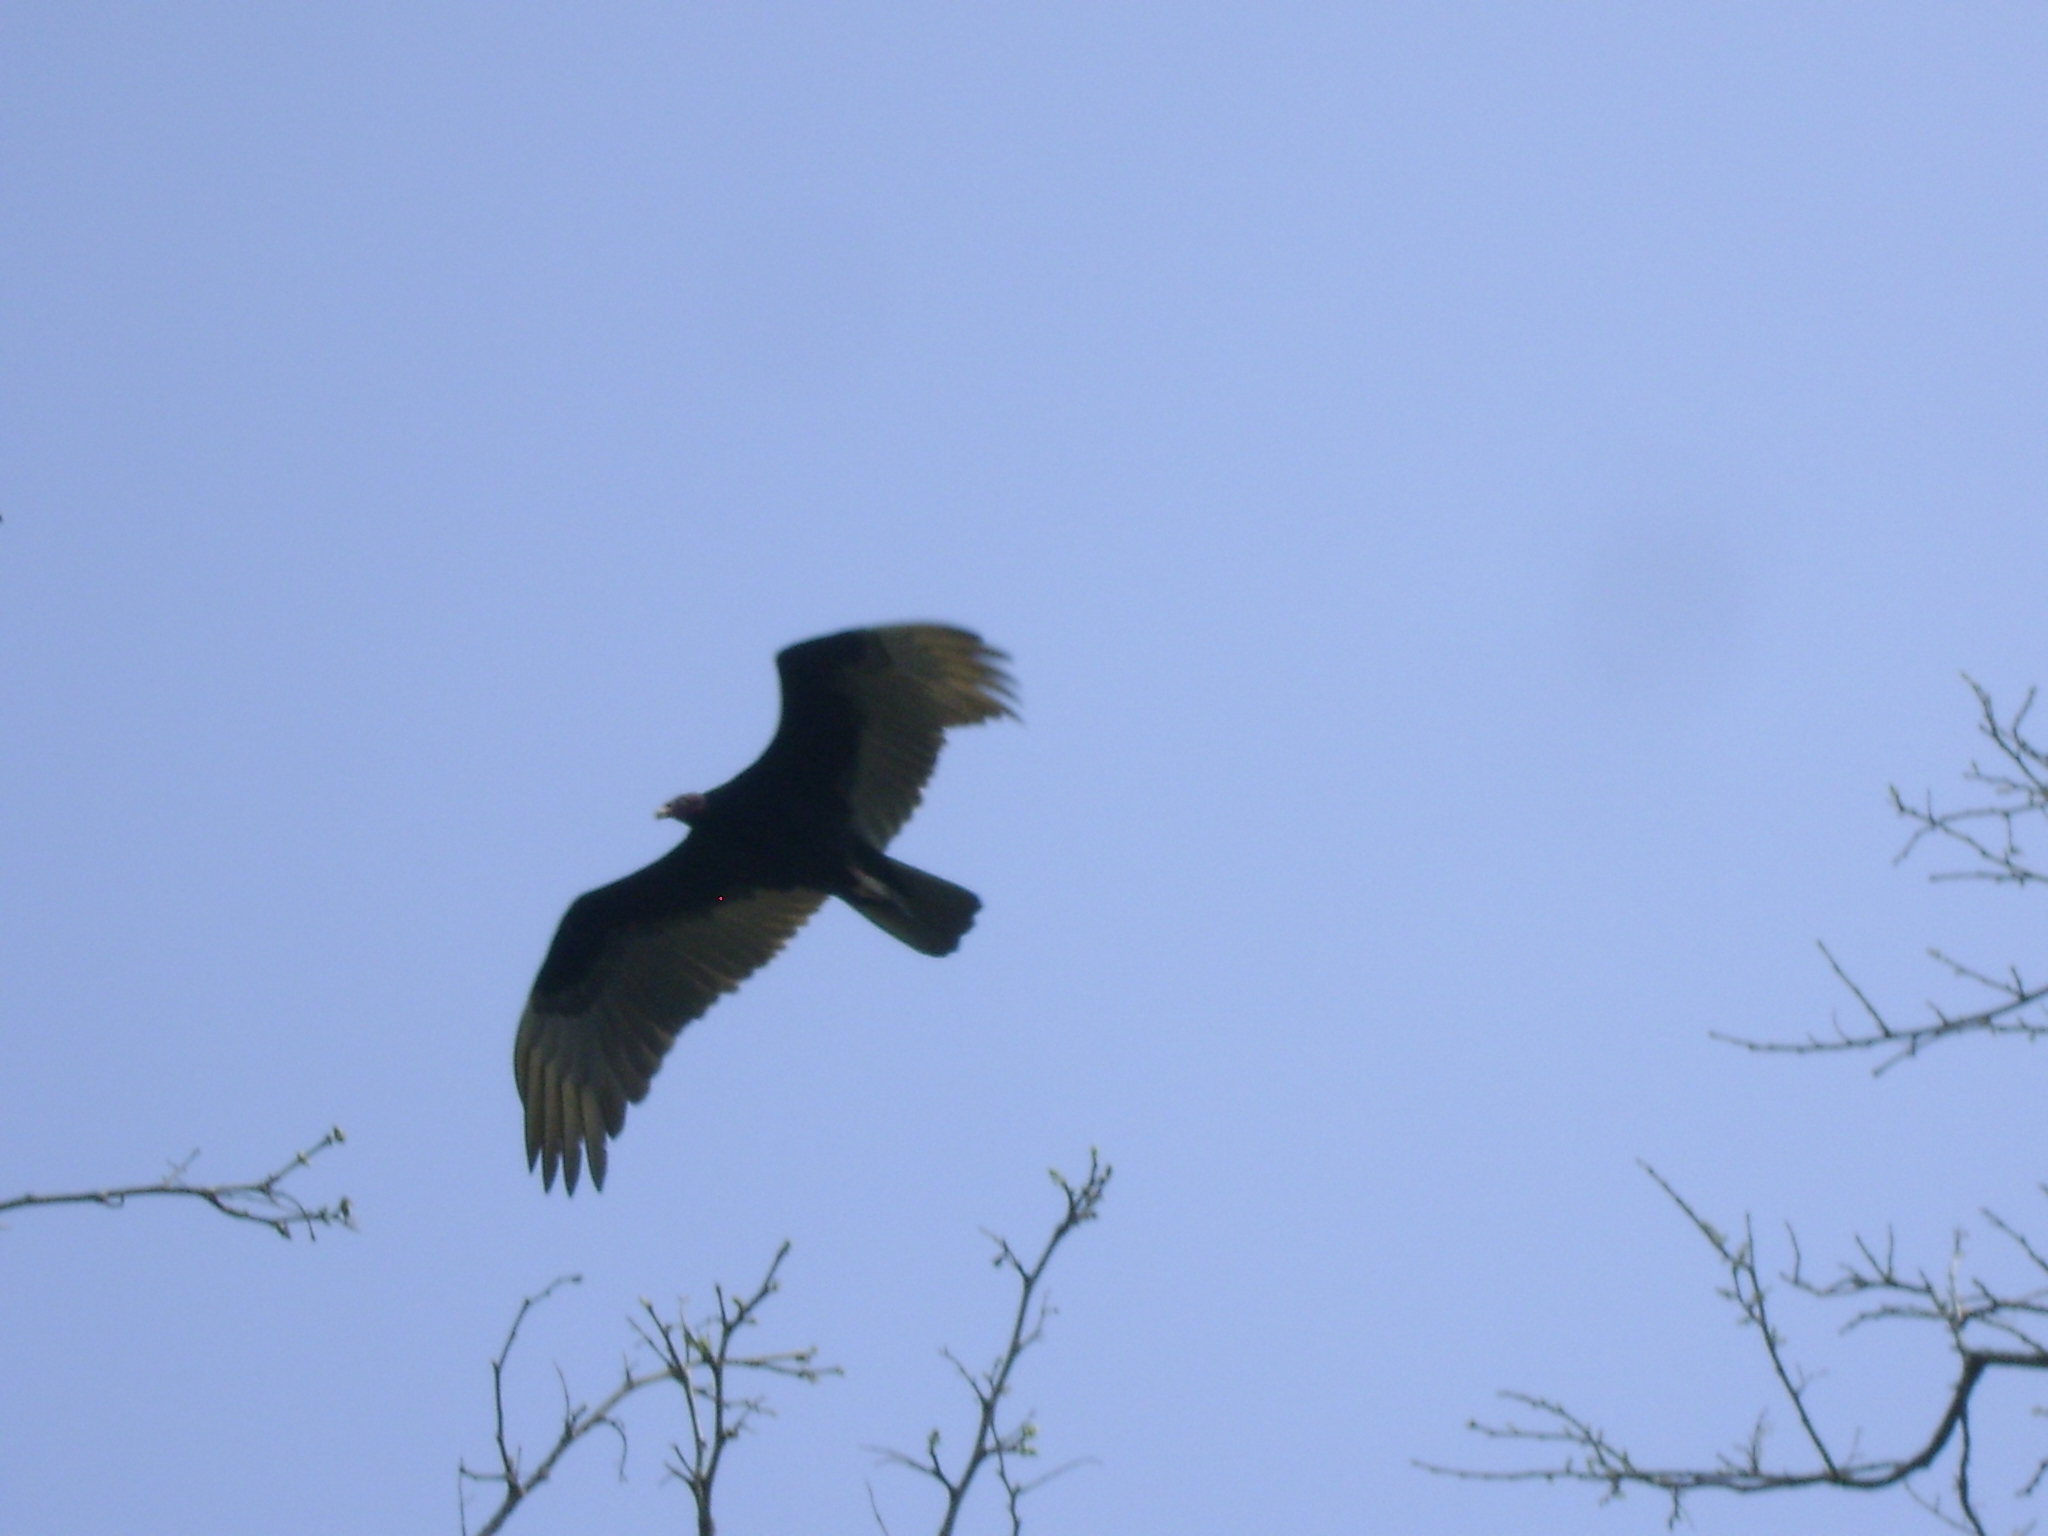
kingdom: Animalia
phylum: Chordata
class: Aves
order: Accipitriformes
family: Cathartidae
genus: Cathartes
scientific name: Cathartes aura
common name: Turkey vulture
